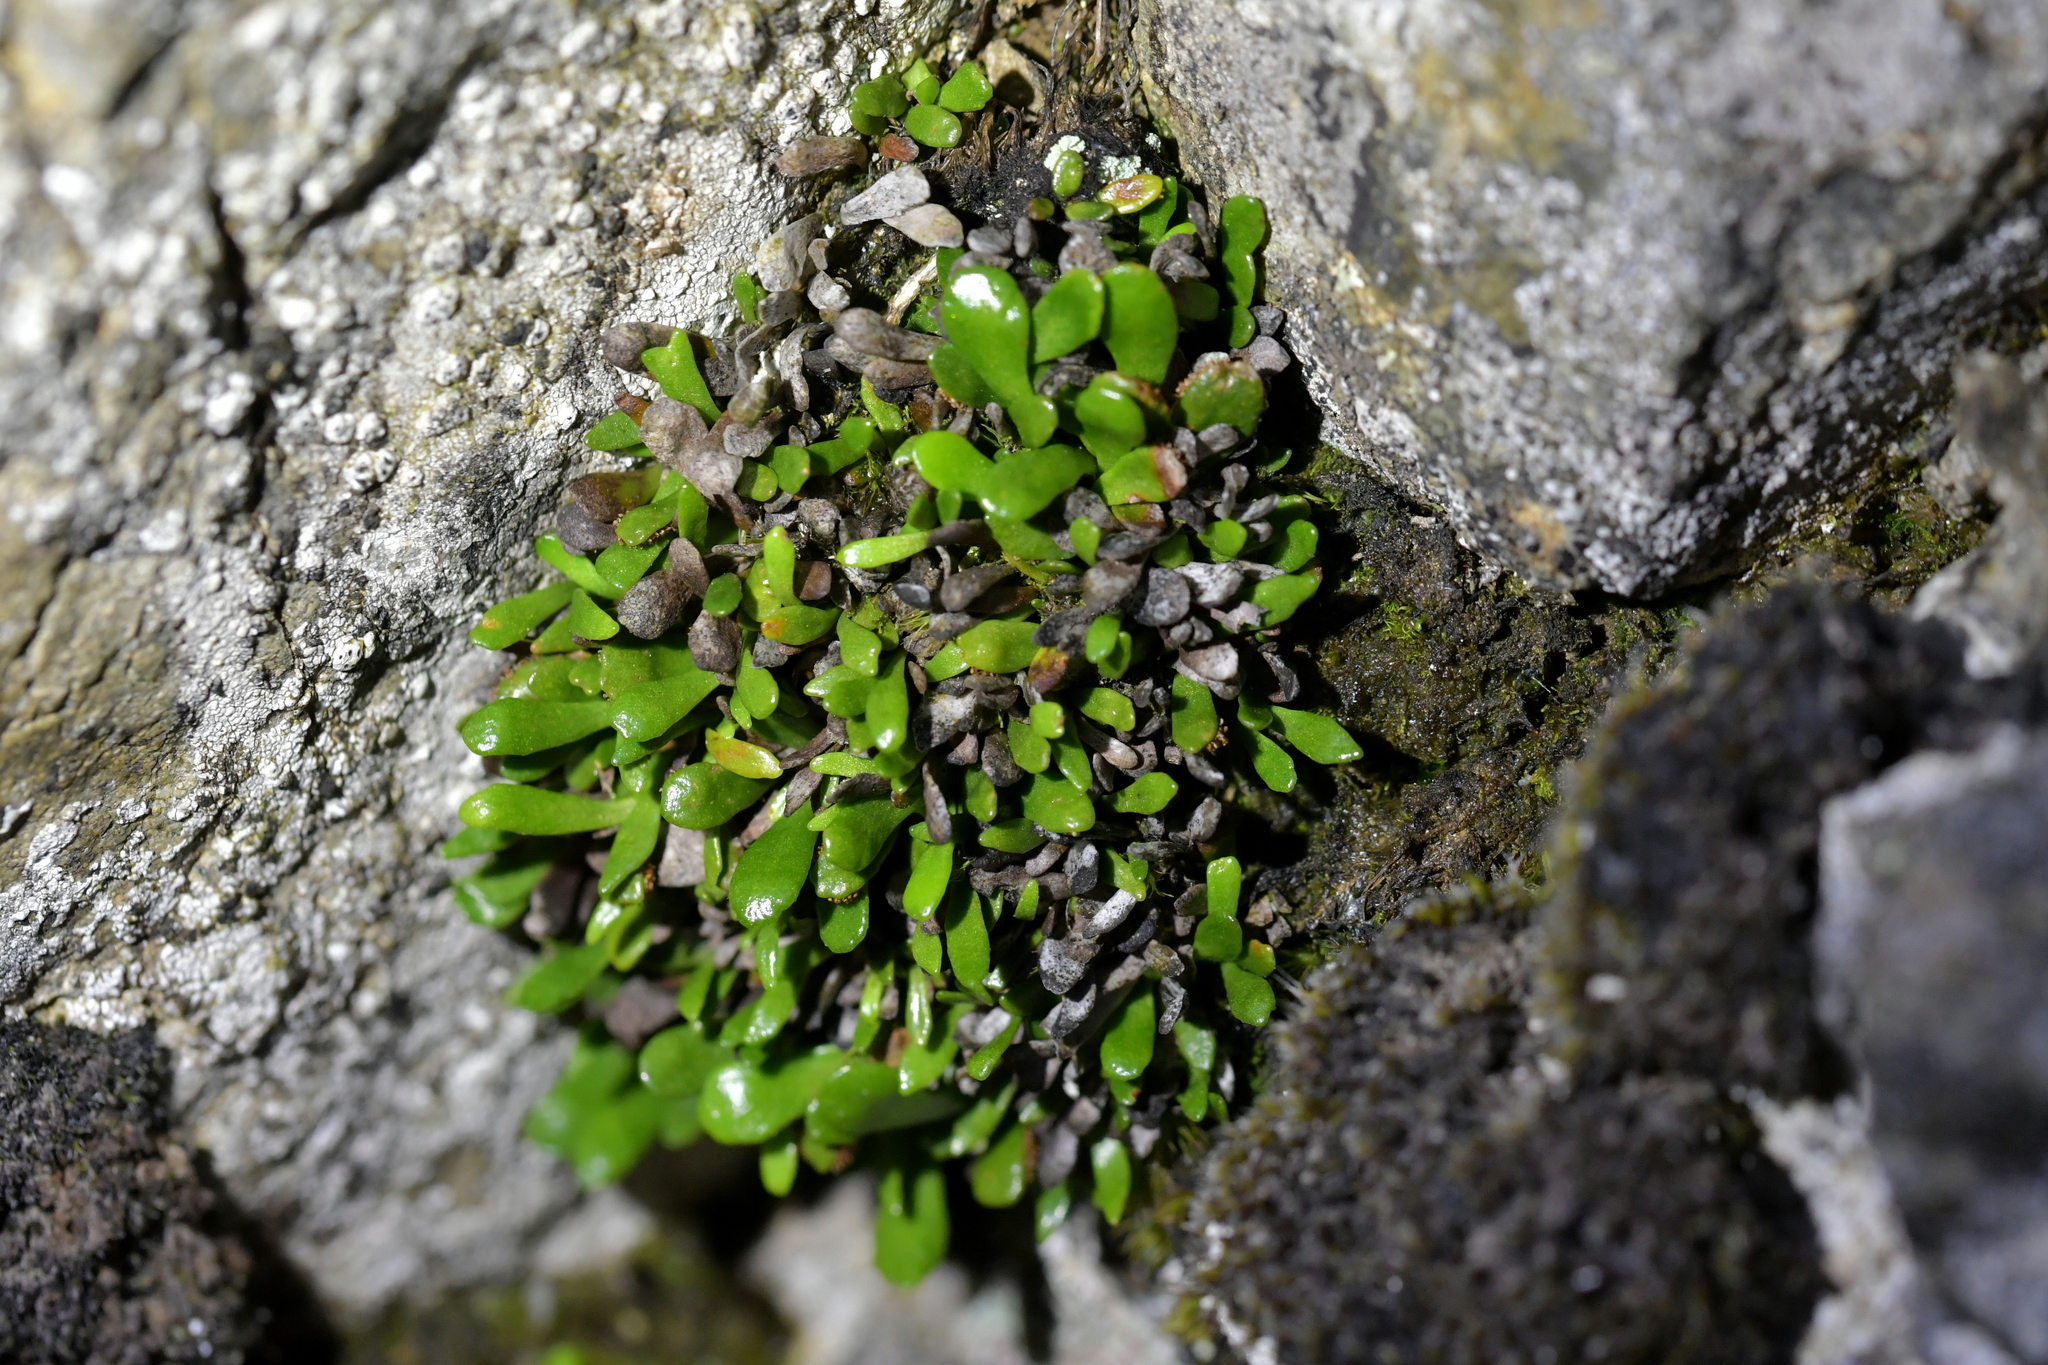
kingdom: Plantae
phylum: Tracheophyta
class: Polypodiopsida
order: Polypodiales
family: Polypodiaceae
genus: Notogrammitis
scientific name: Notogrammitis crassior
